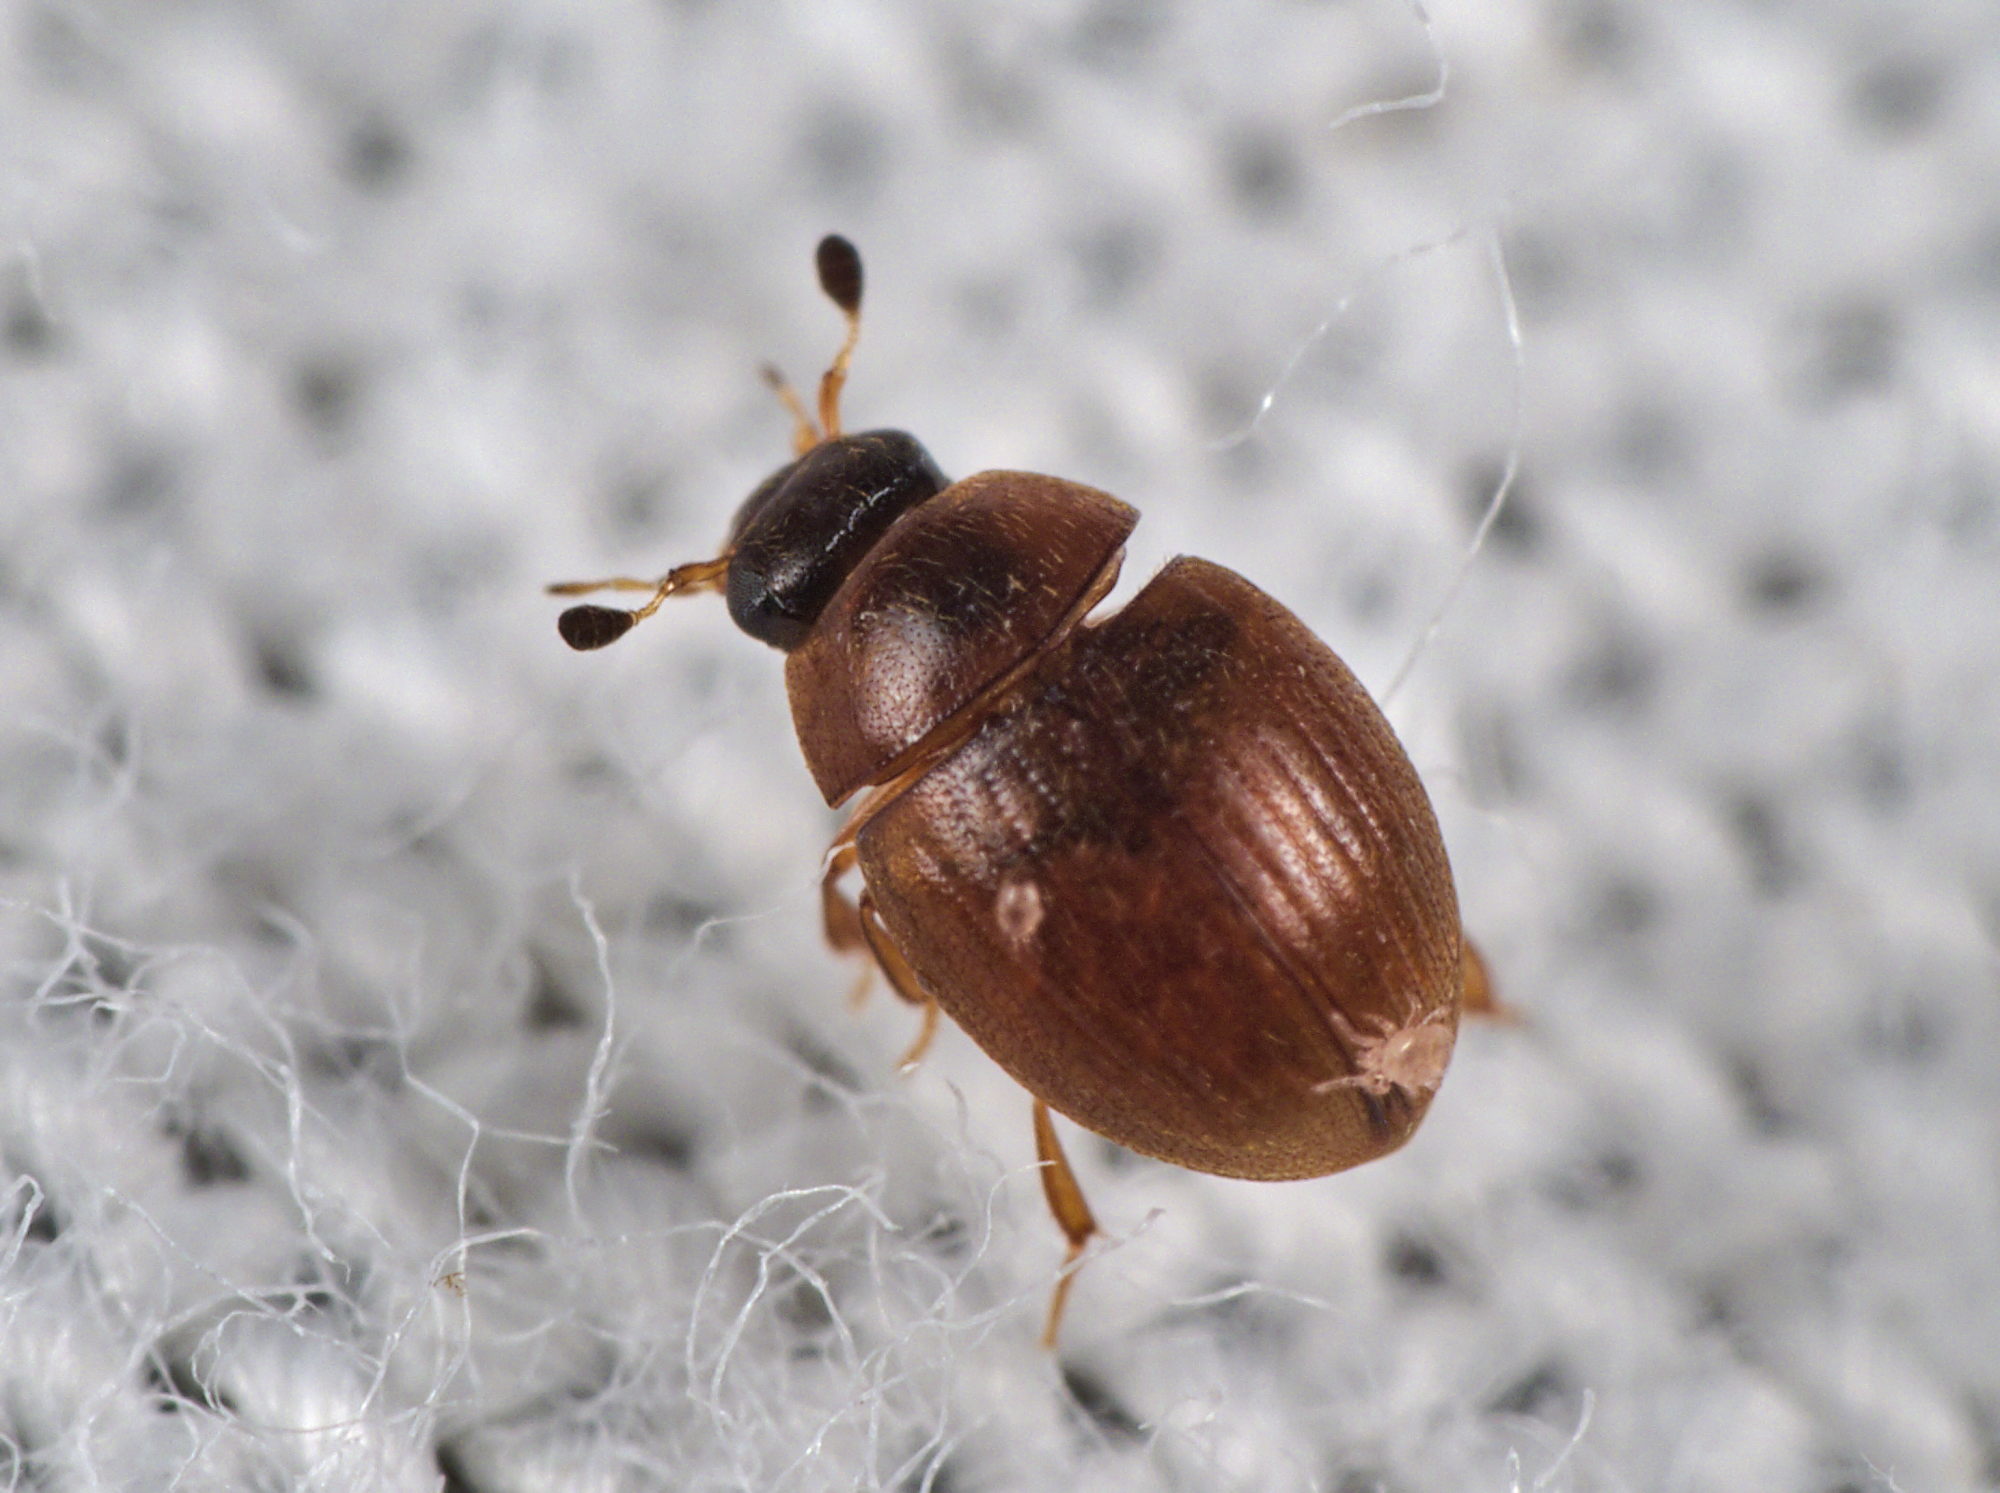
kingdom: Animalia
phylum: Arthropoda
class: Insecta
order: Coleoptera
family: Hydrophilidae
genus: Cryptopleurum
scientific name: Cryptopleurum subtile
